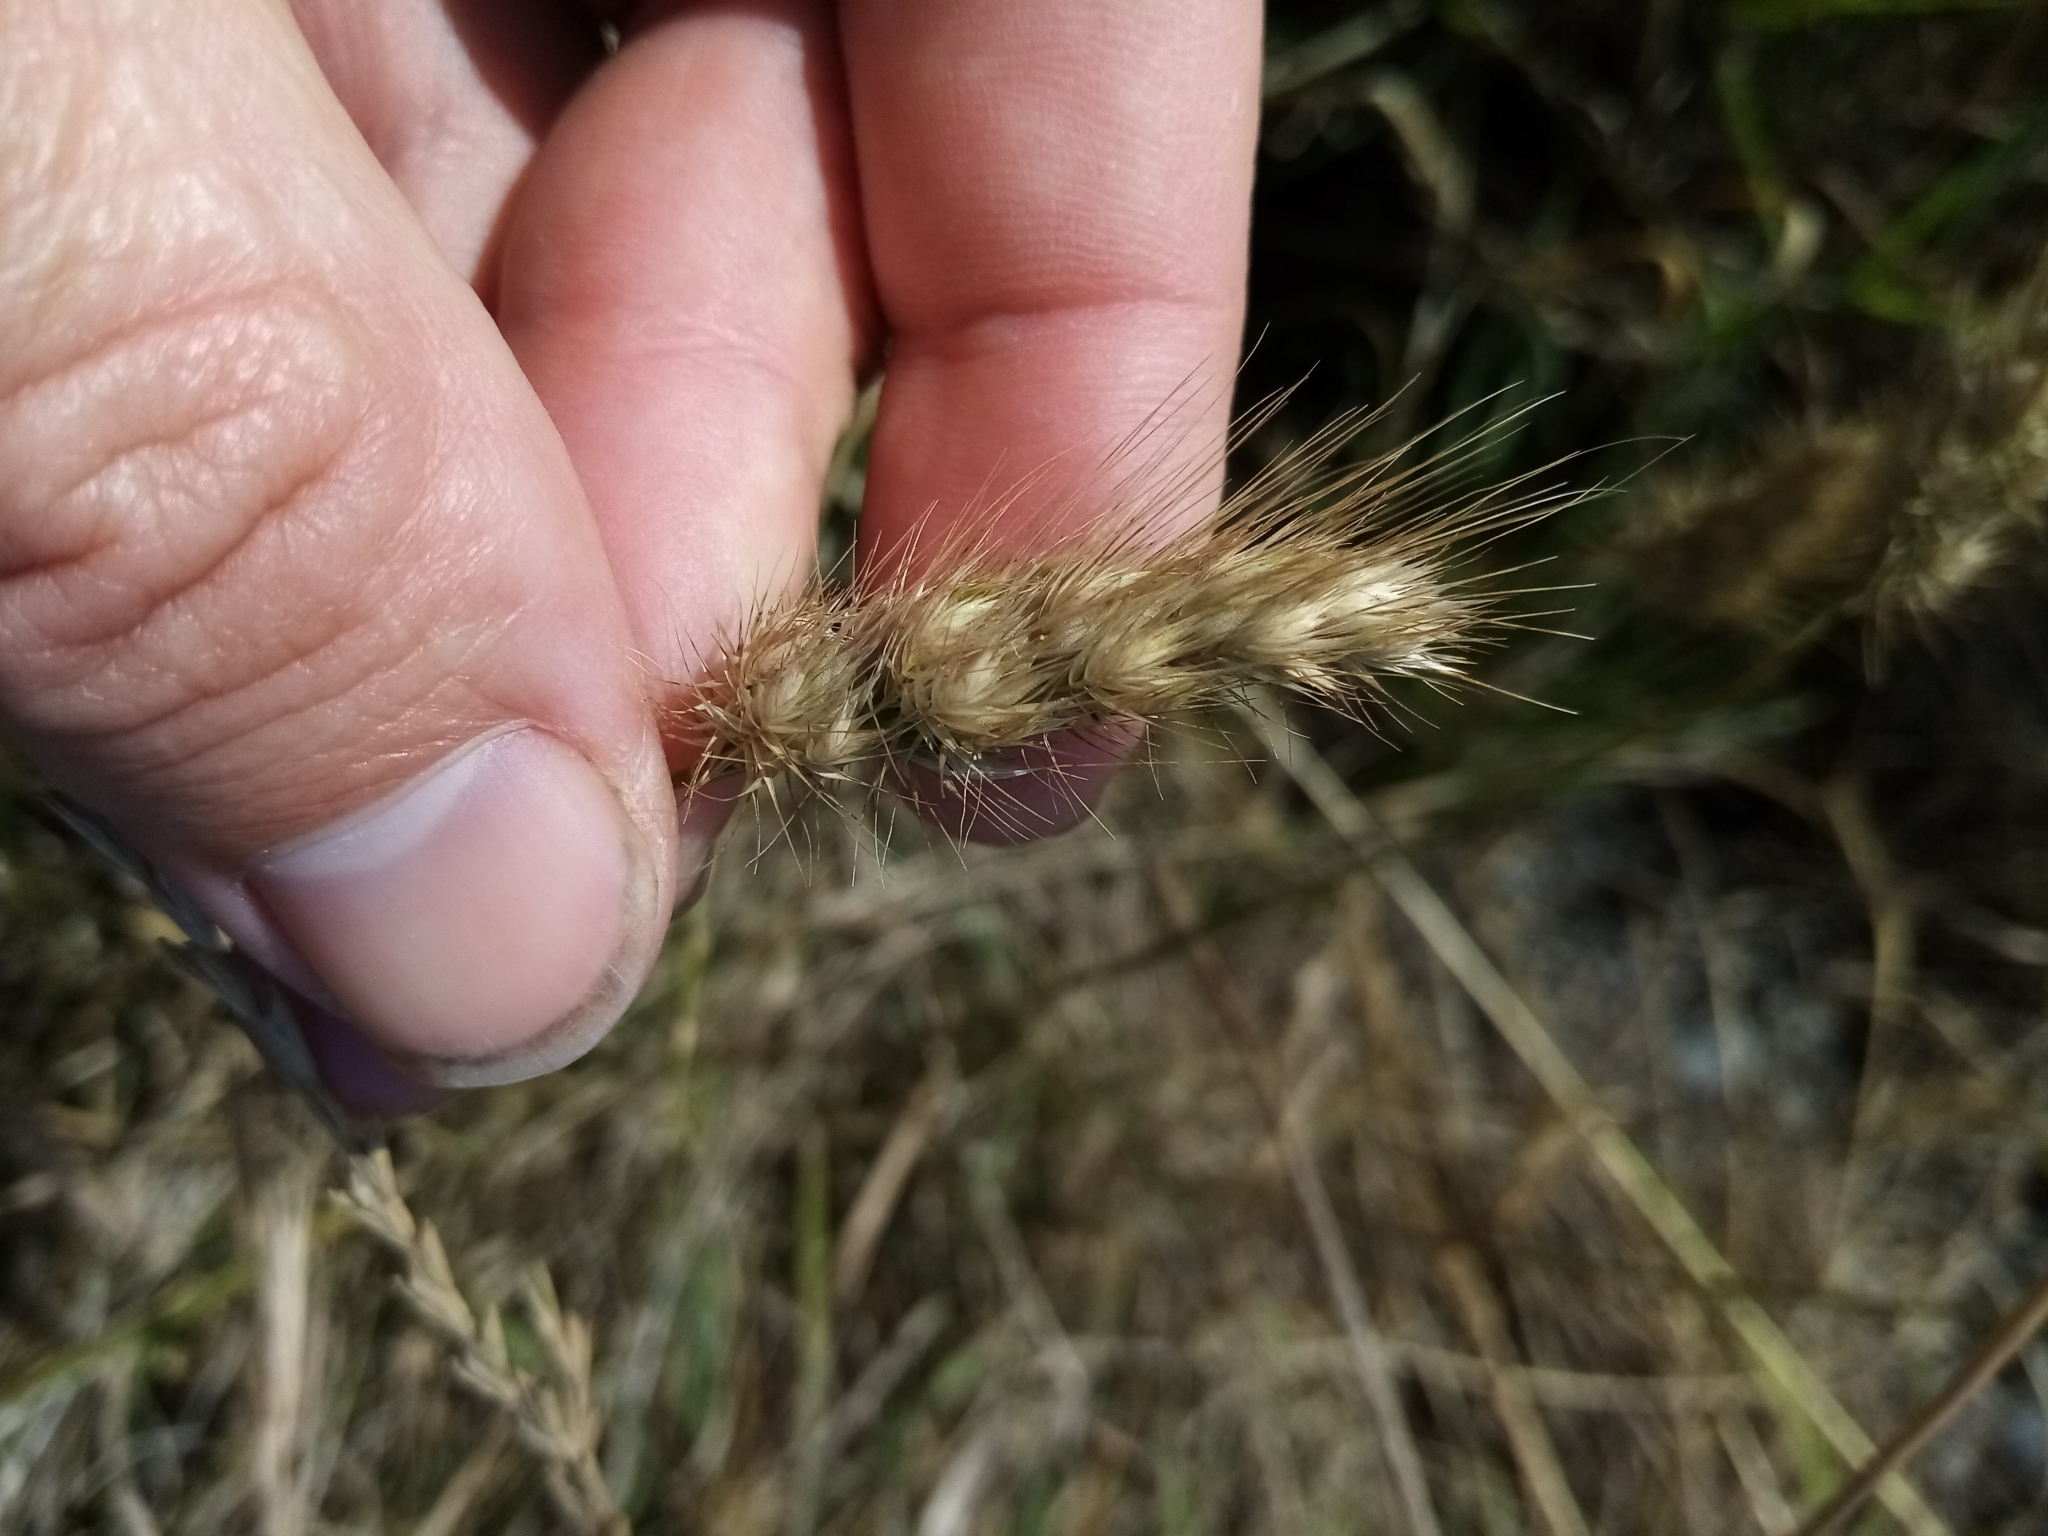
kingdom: Plantae
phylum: Tracheophyta
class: Liliopsida
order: Poales
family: Poaceae
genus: Cynosurus
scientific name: Cynosurus echinatus
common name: Rough dog's-tail
